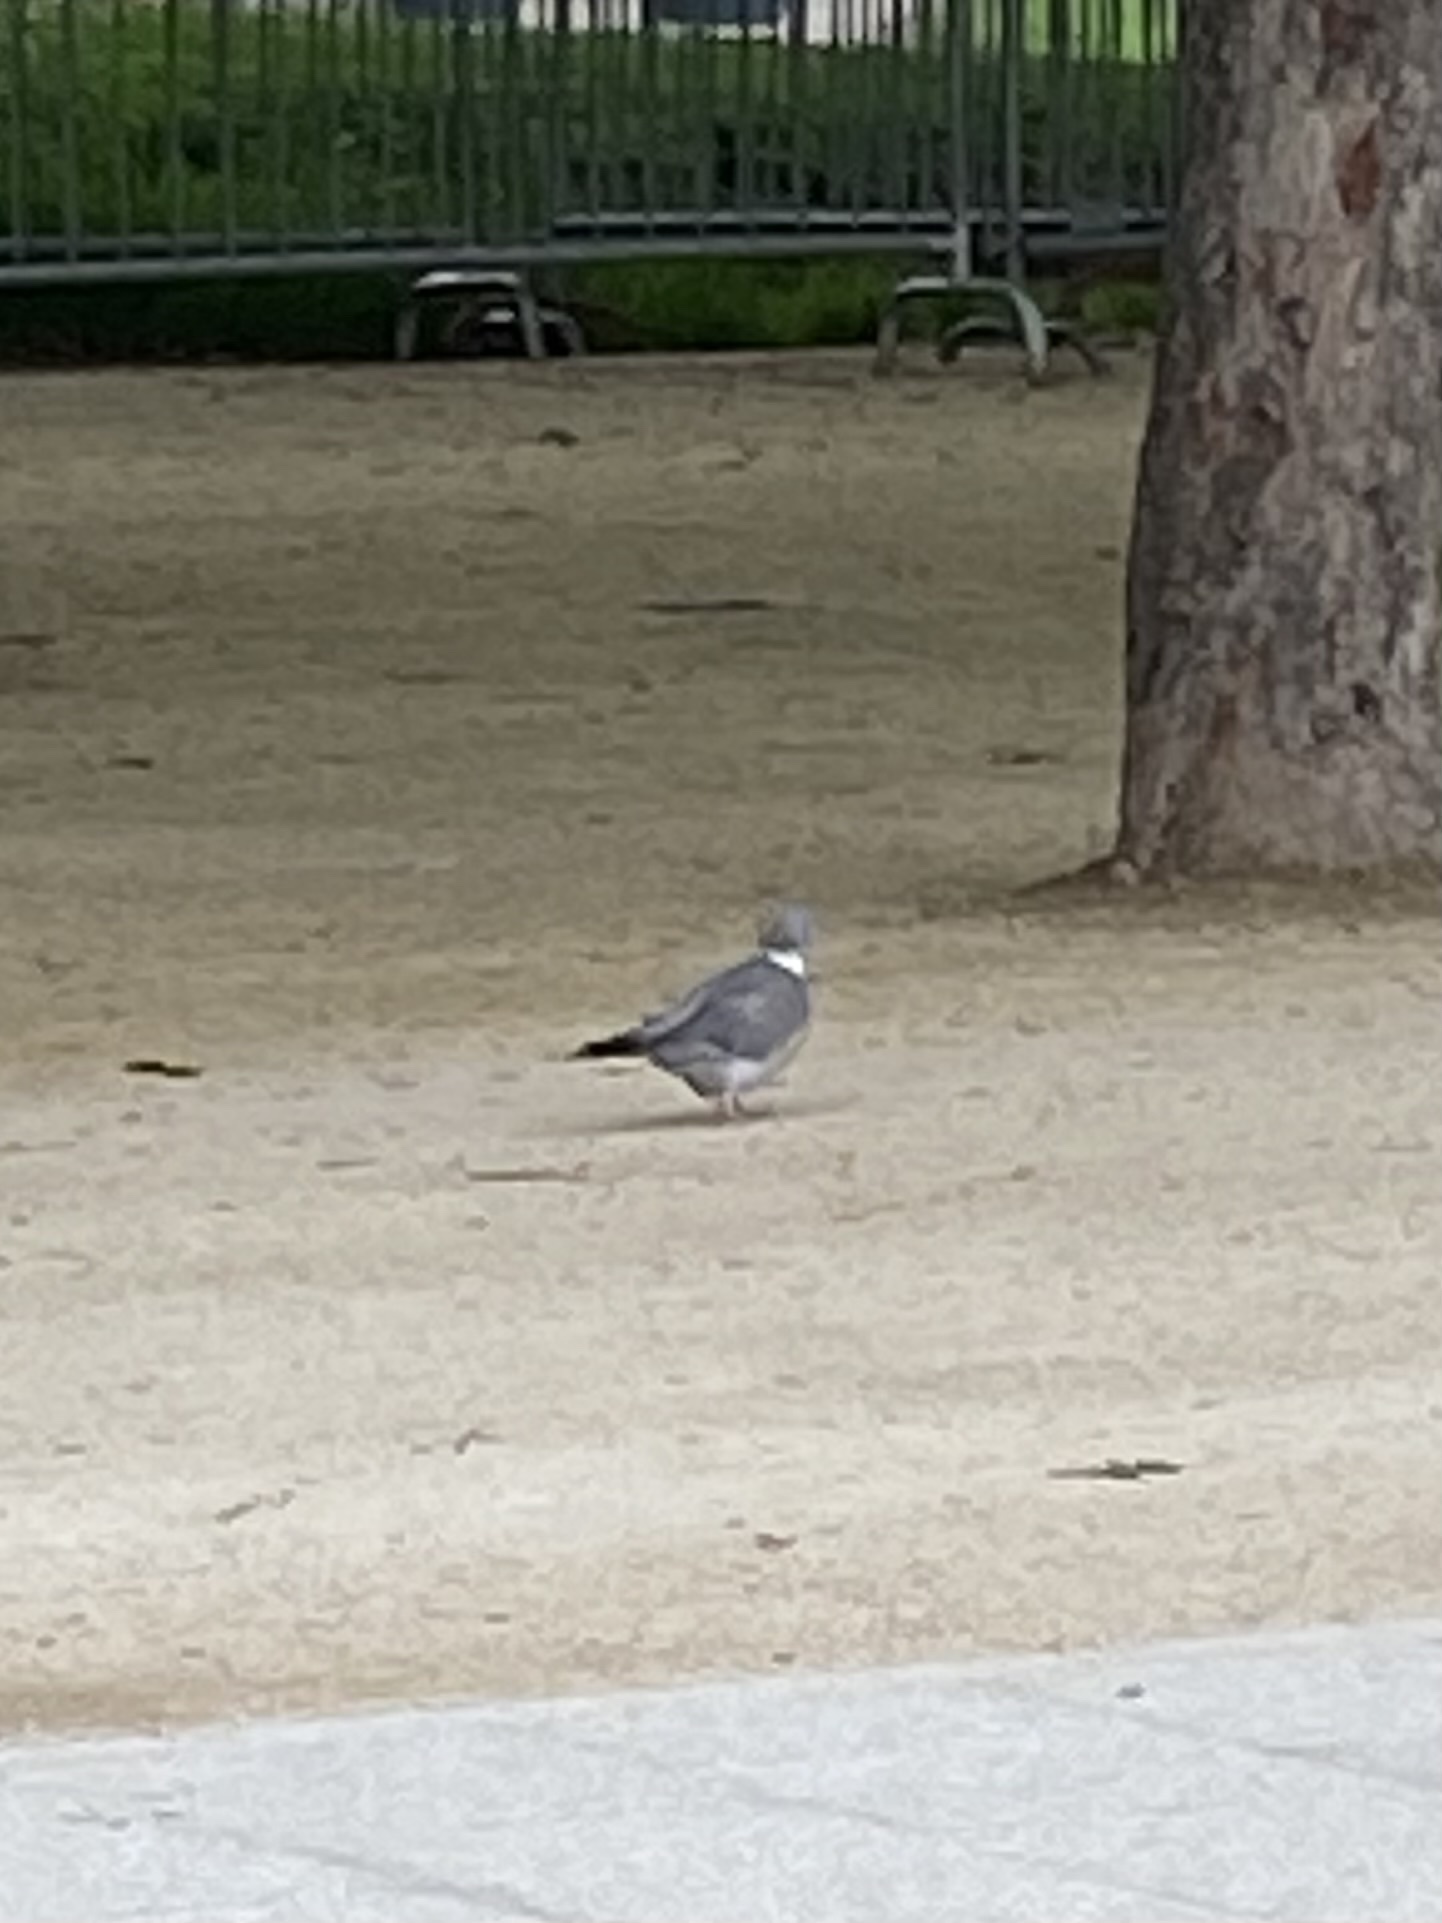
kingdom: Animalia
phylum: Chordata
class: Aves
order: Columbiformes
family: Columbidae
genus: Columba
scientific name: Columba palumbus
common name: Common wood pigeon
